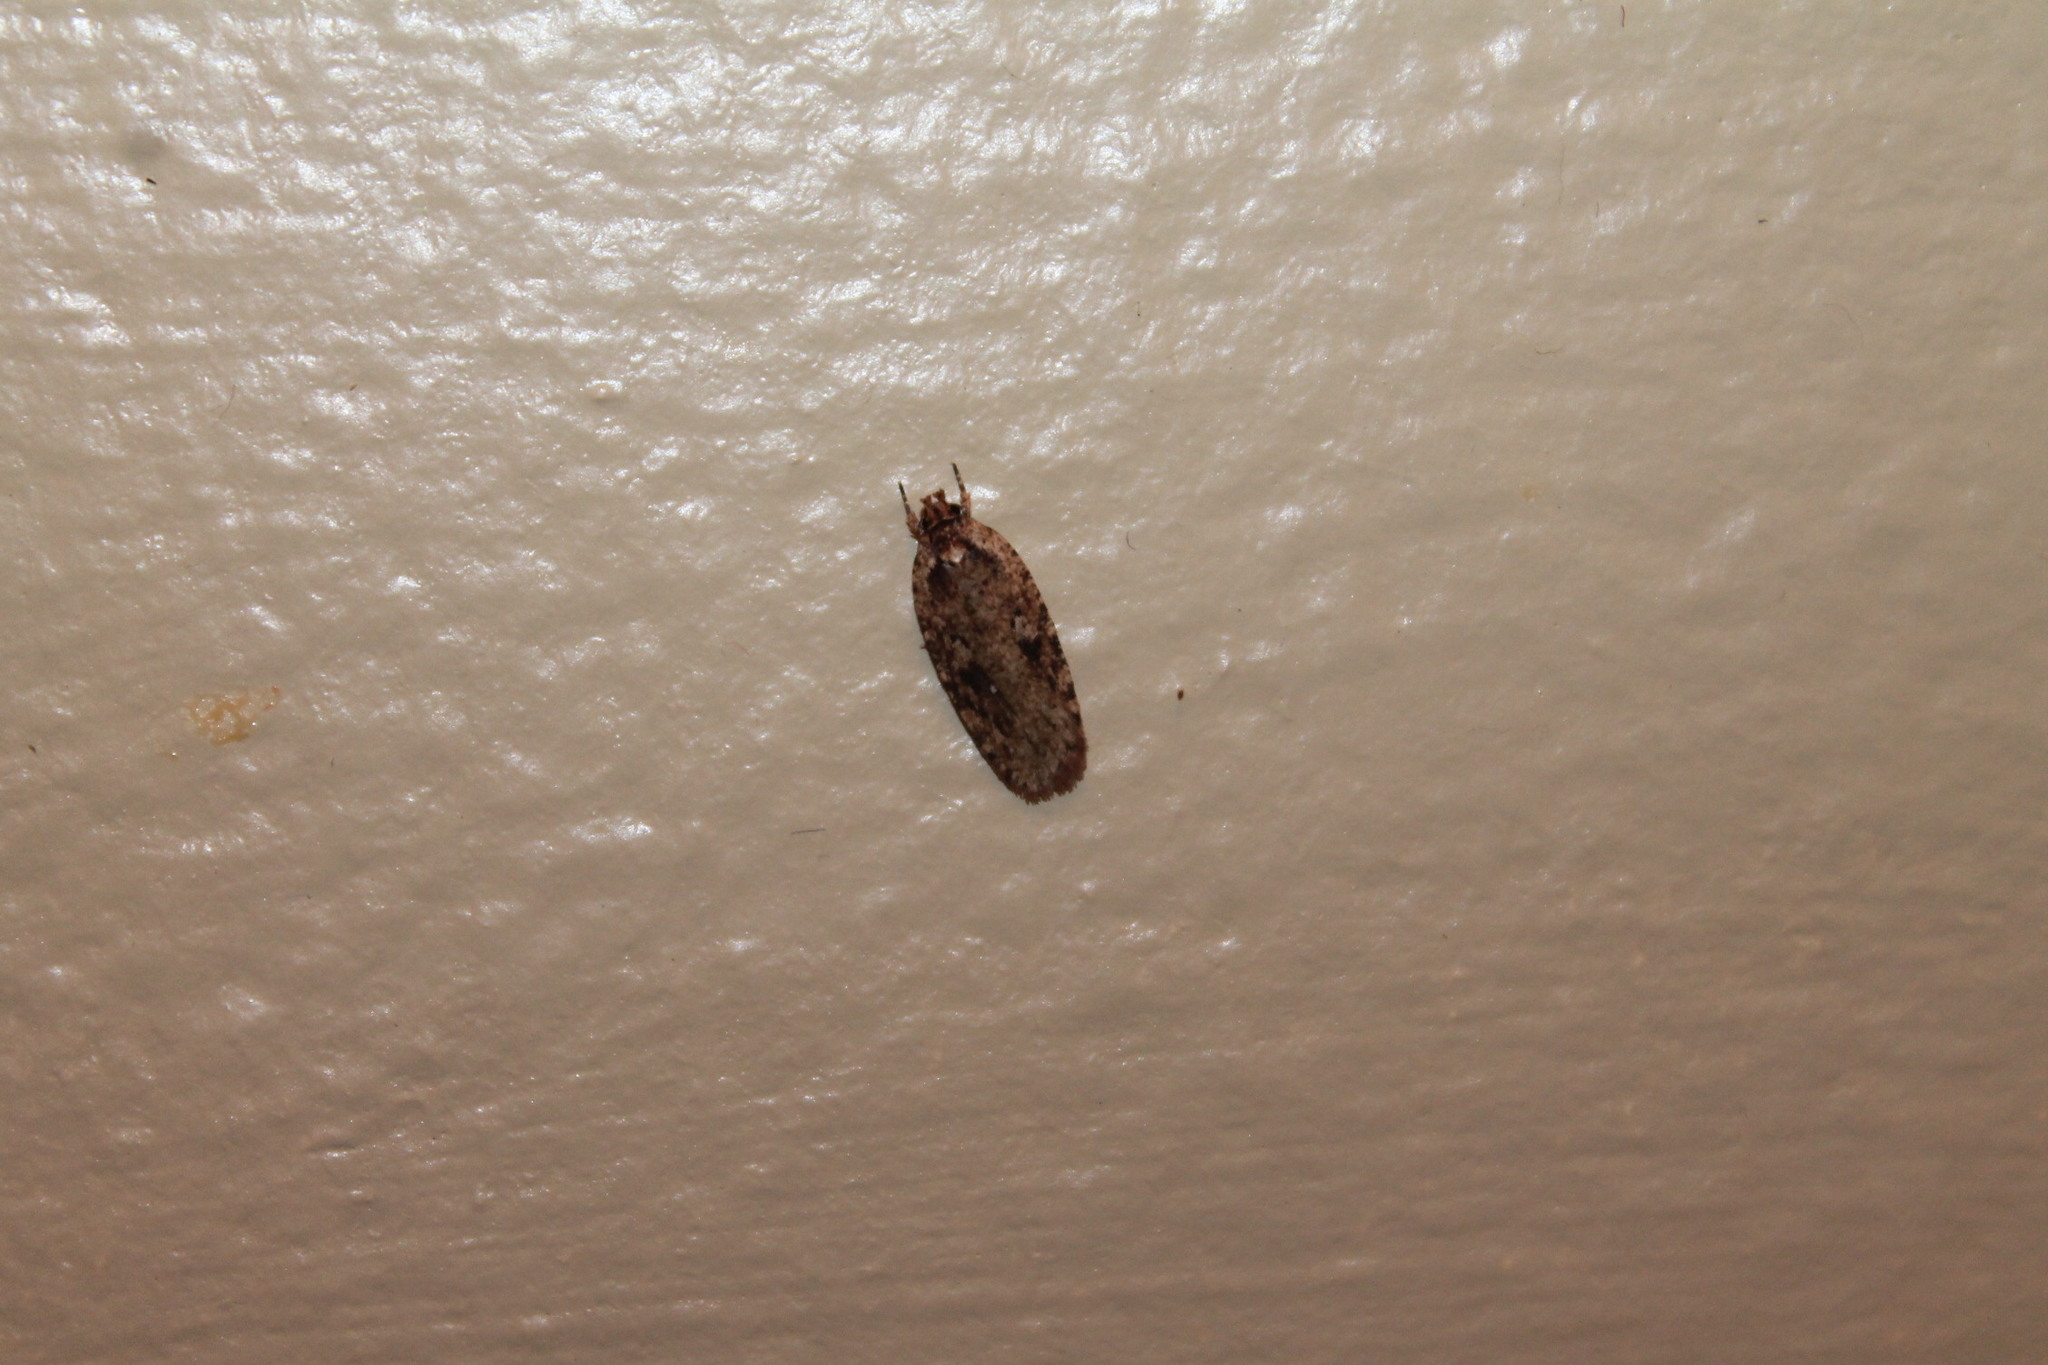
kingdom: Animalia
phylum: Arthropoda
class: Insecta
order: Lepidoptera
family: Depressariidae
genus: Agonopterix
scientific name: Agonopterix pulvipennella
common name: Goldenrod leafffolder
